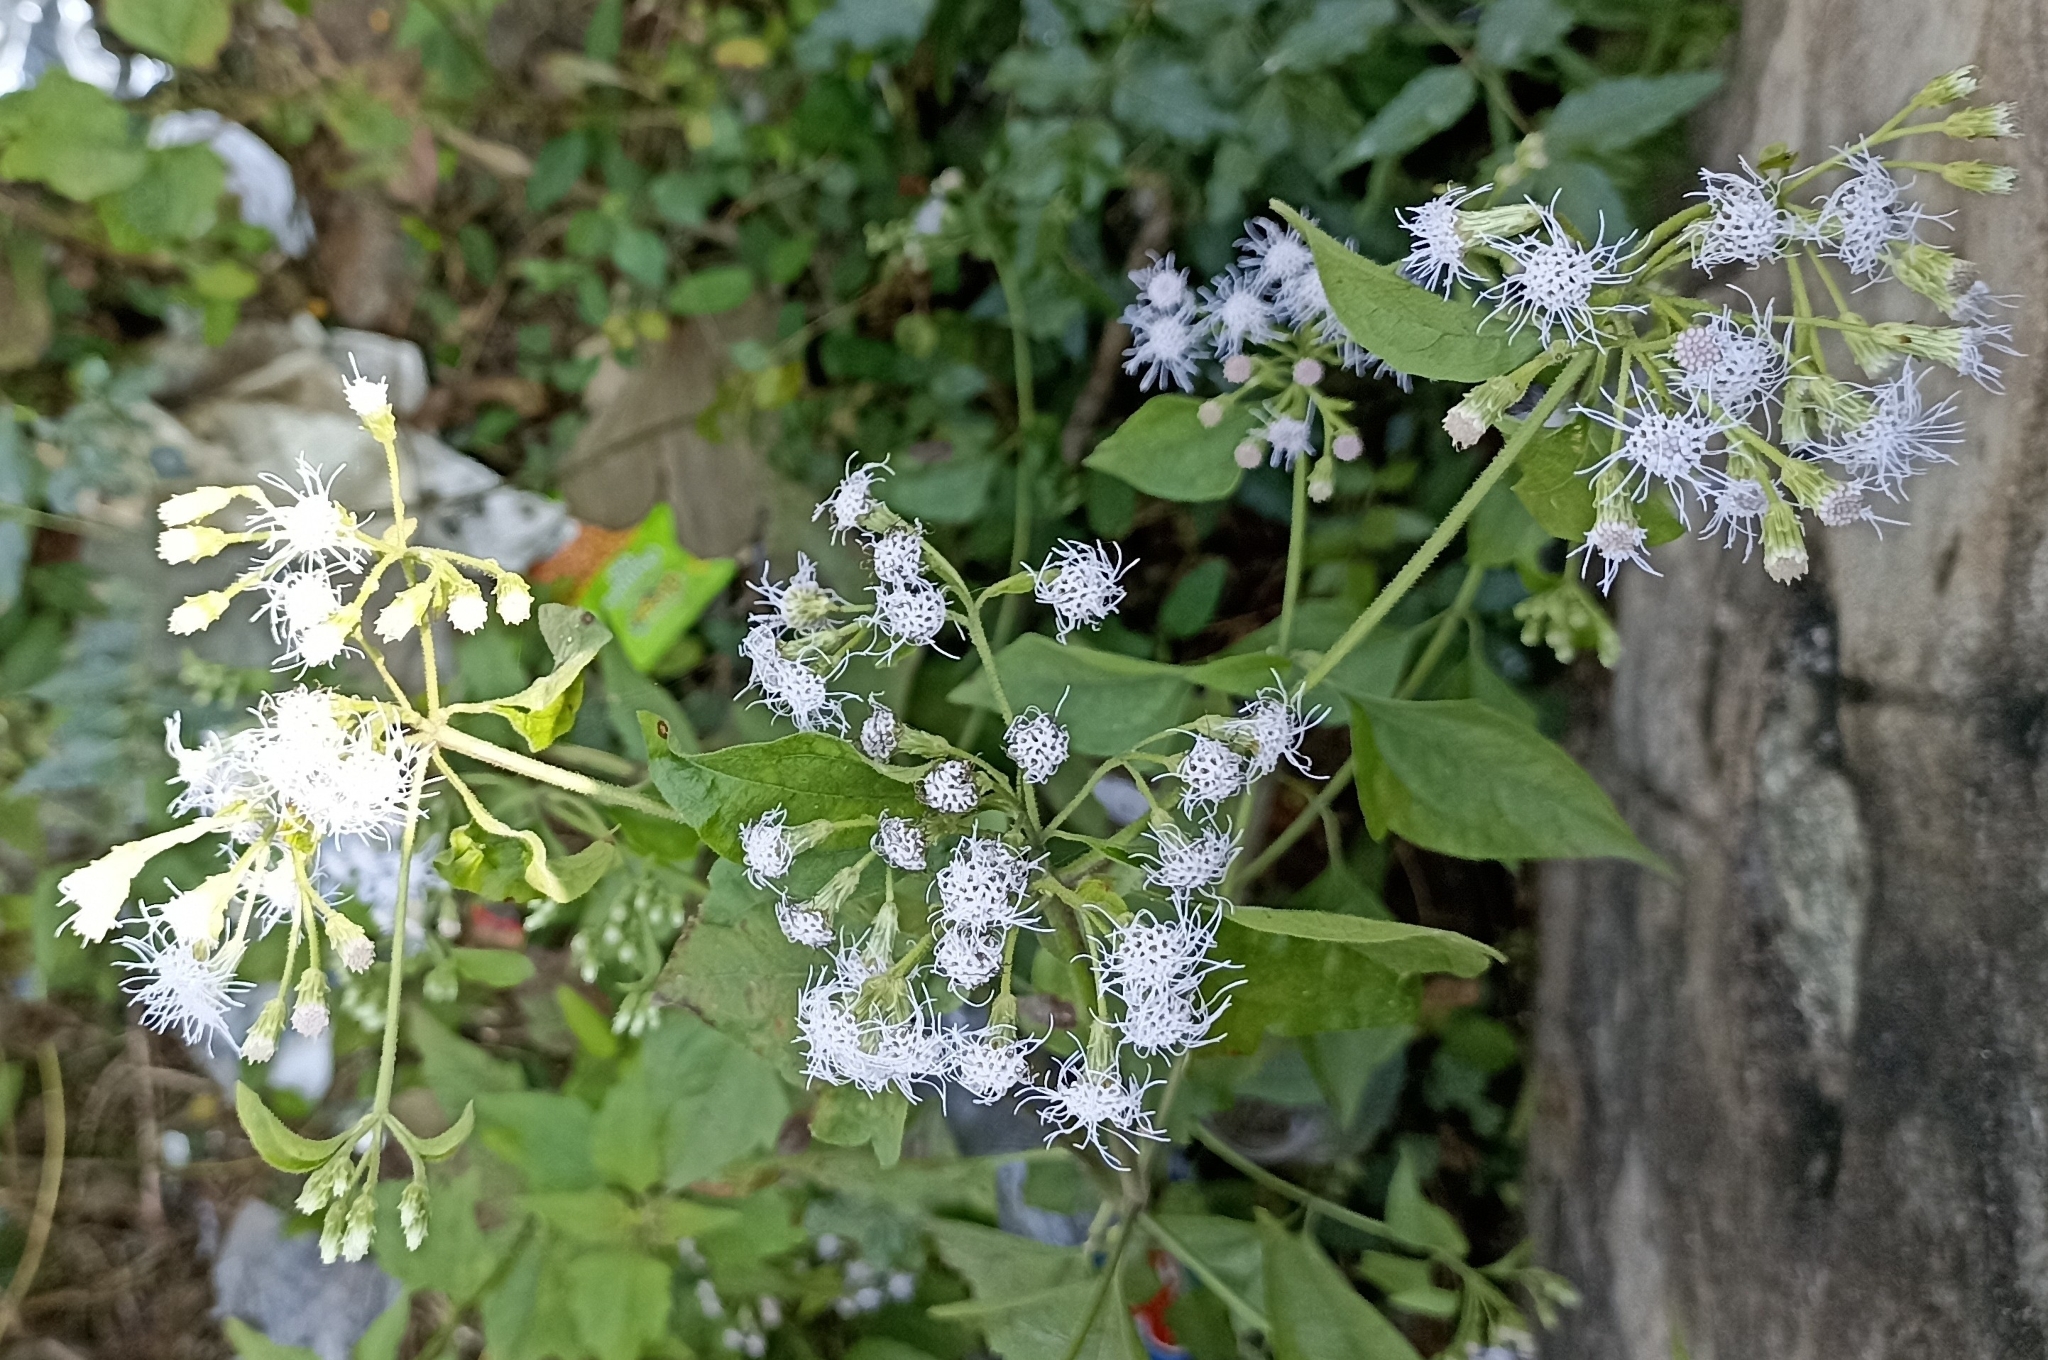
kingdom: Plantae
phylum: Tracheophyta
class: Magnoliopsida
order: Asterales
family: Asteraceae
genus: Chromolaena
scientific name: Chromolaena odorata
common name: Siamweed
